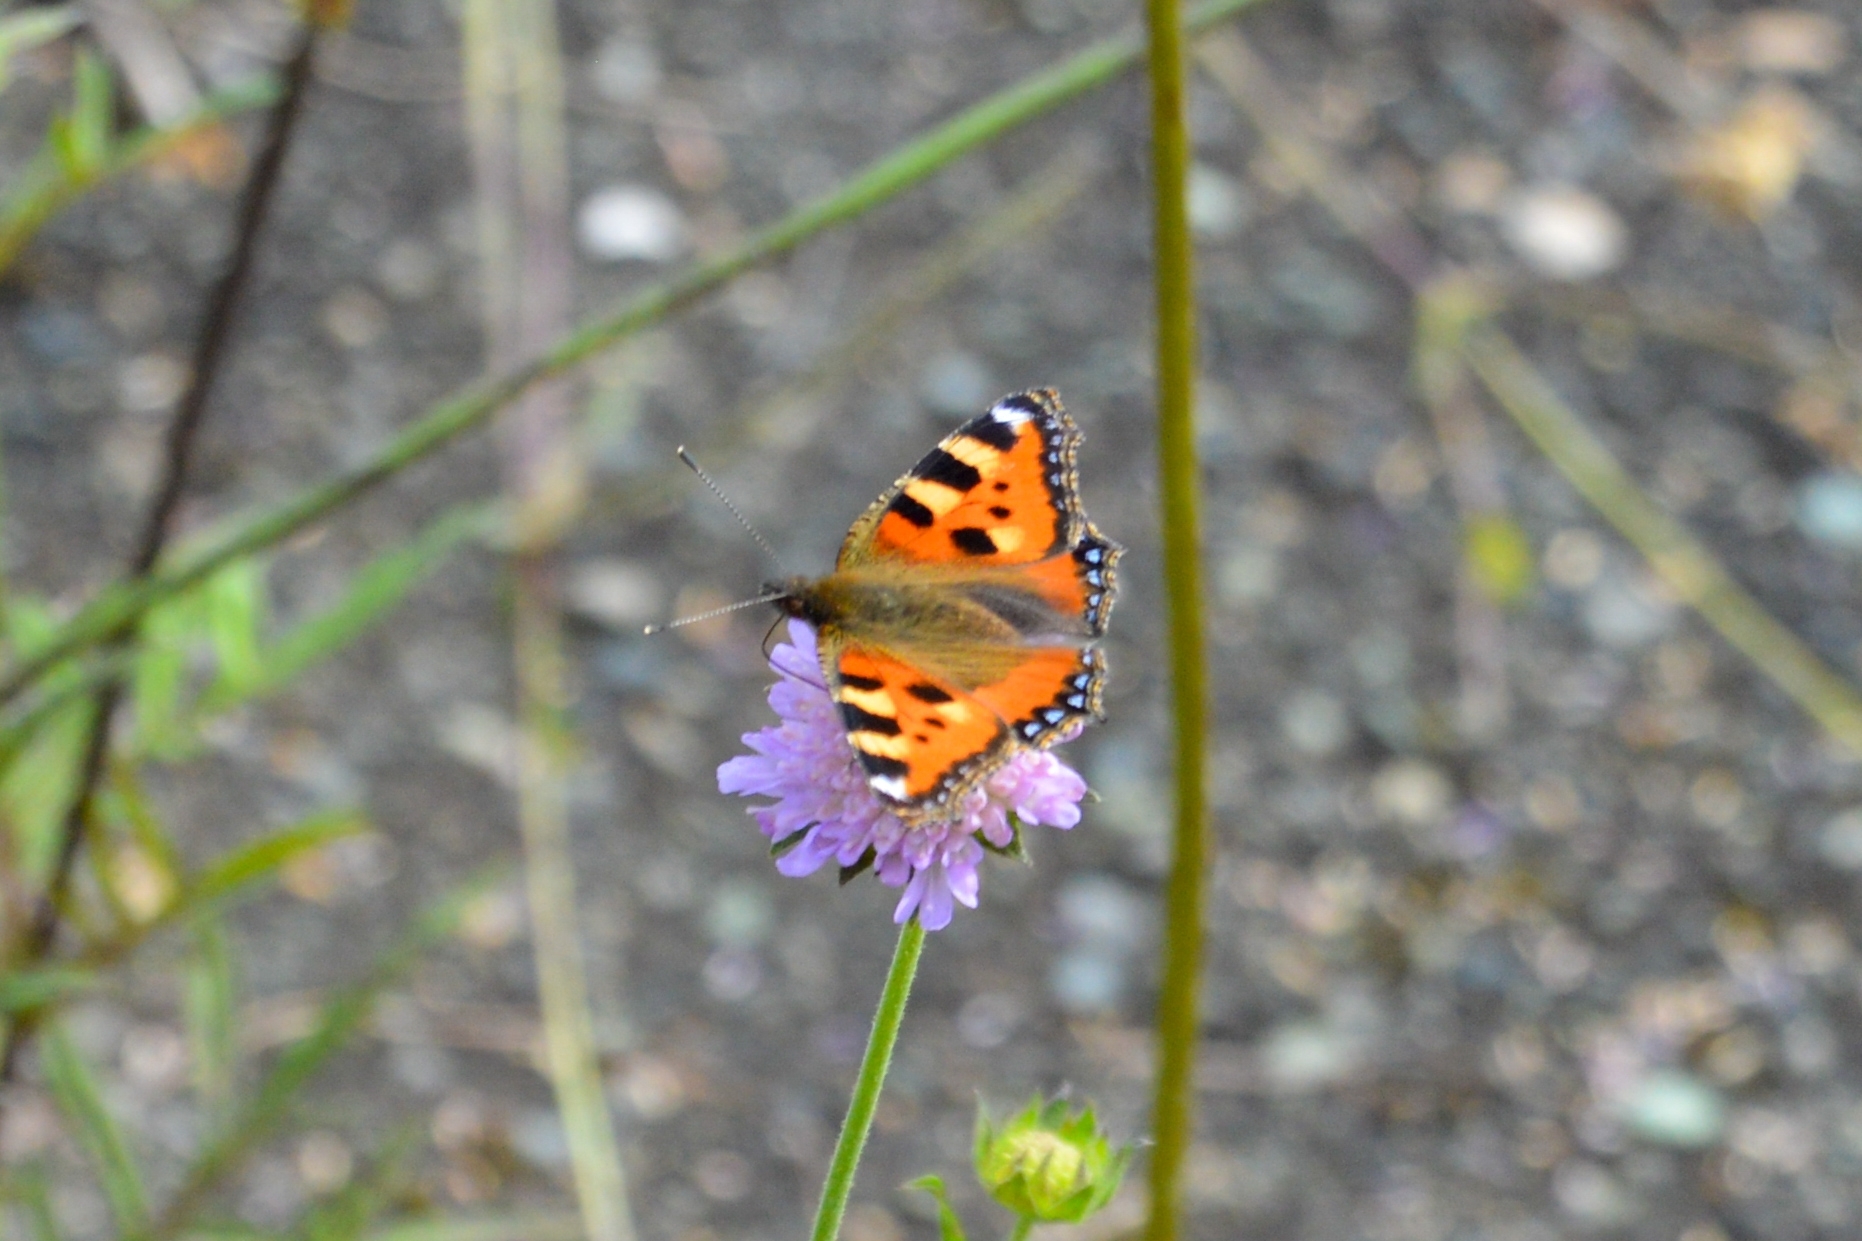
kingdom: Animalia
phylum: Arthropoda
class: Insecta
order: Lepidoptera
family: Nymphalidae
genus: Aglais
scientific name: Aglais urticae
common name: Small tortoiseshell
